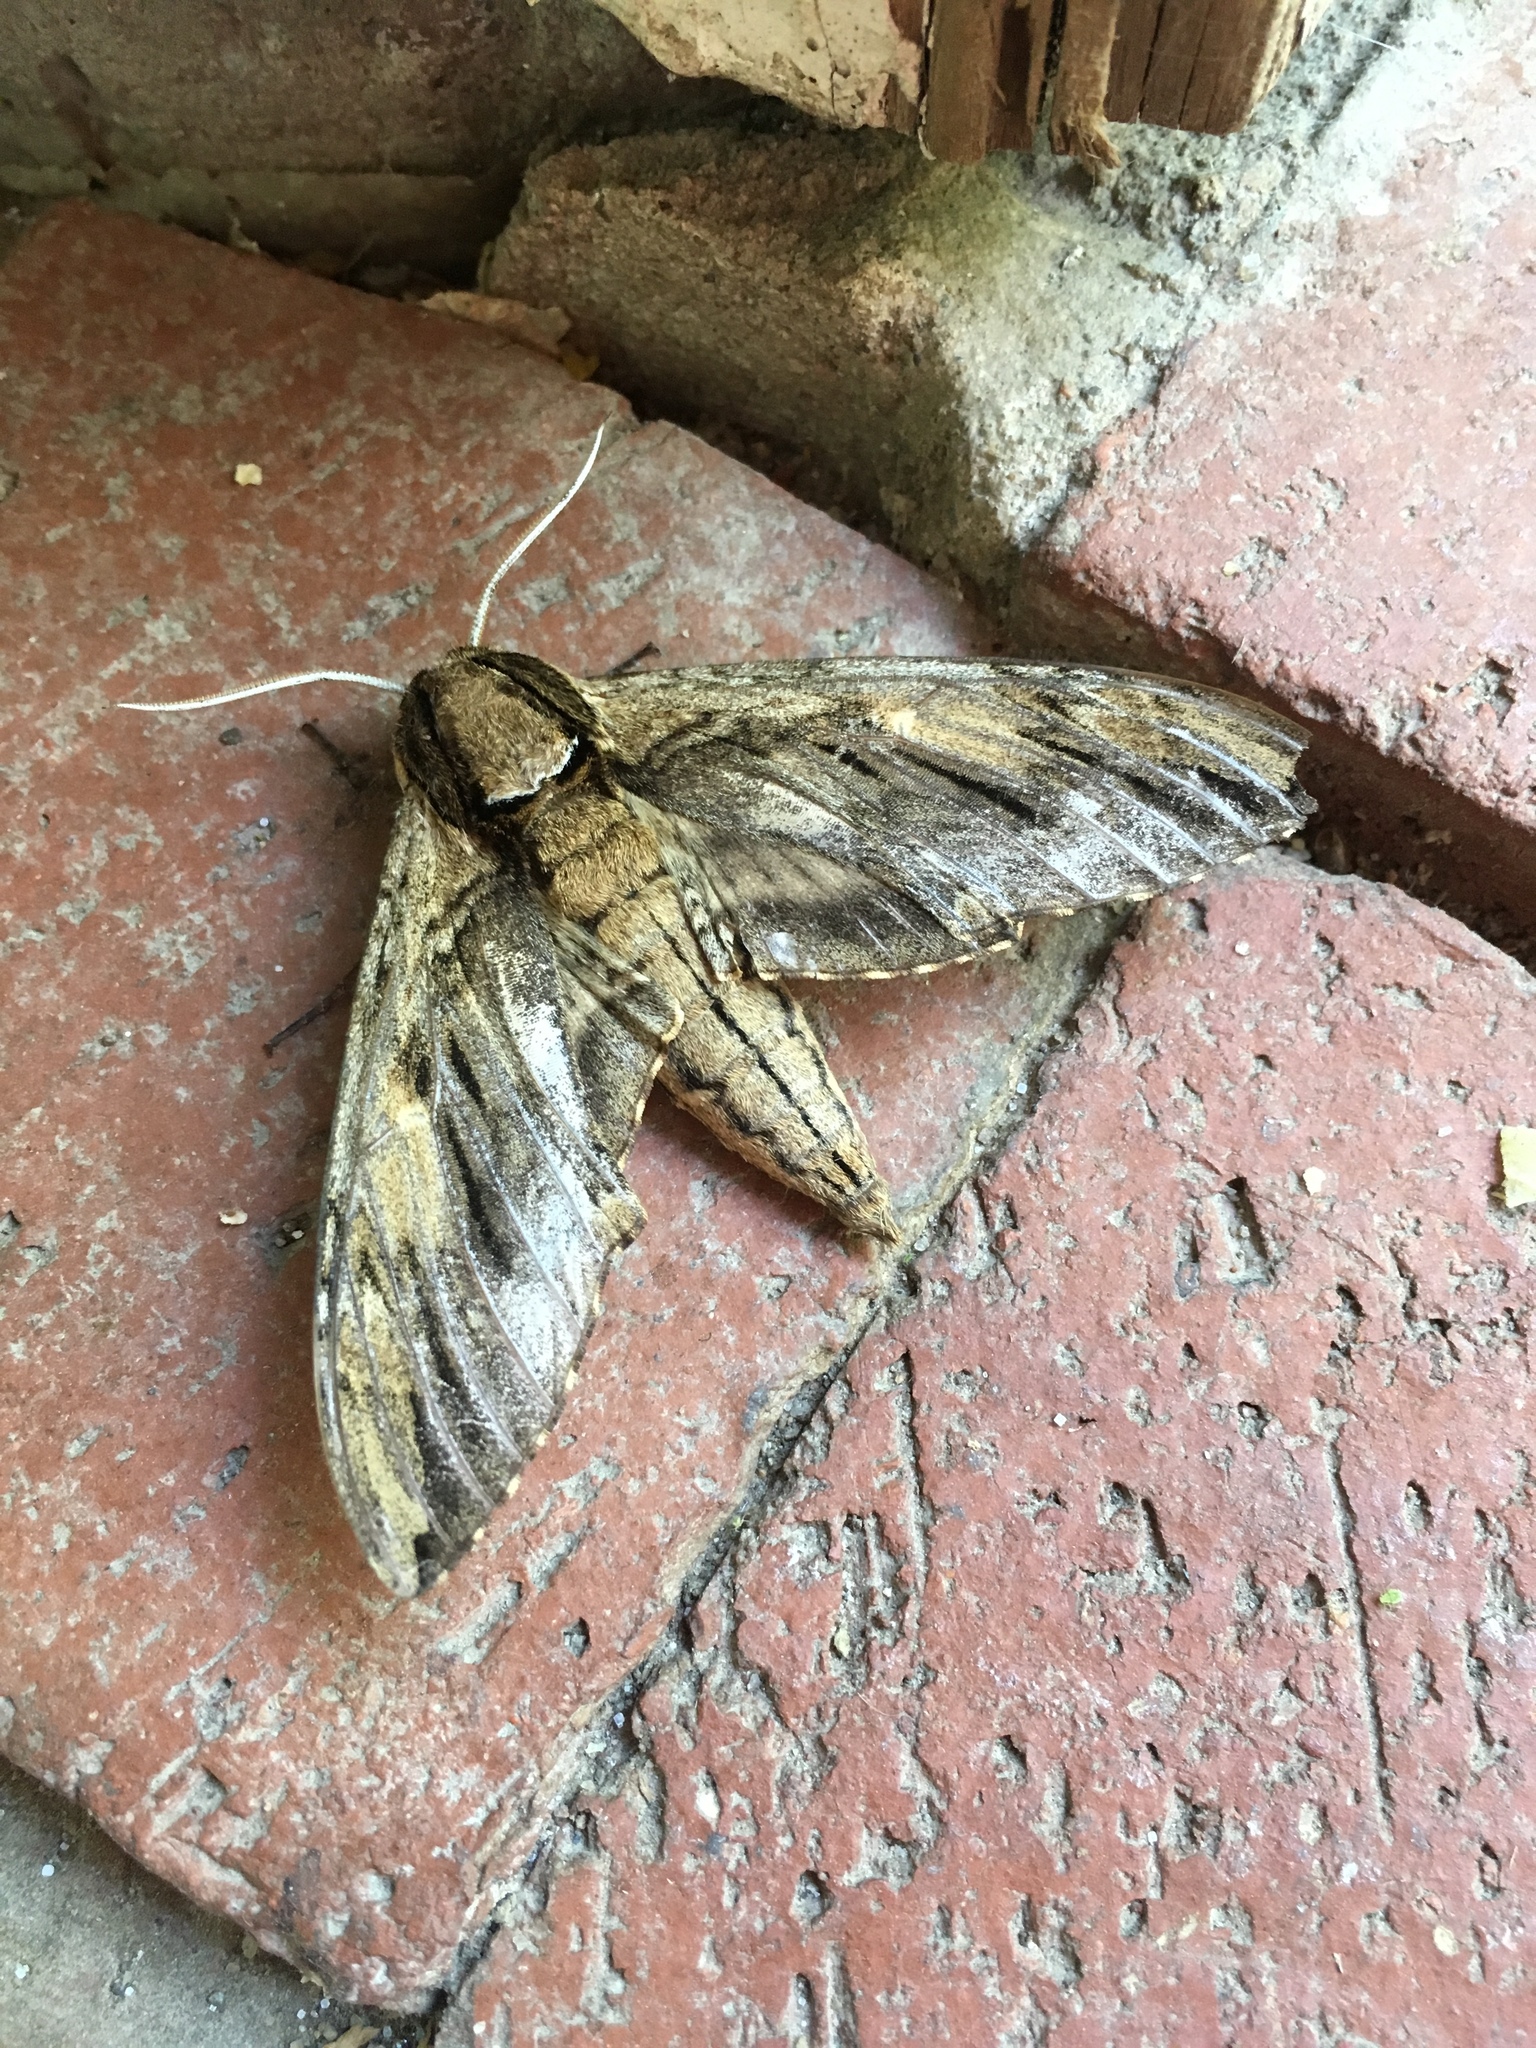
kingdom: Animalia
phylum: Arthropoda
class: Insecta
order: Lepidoptera
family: Sphingidae
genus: Ceratomia
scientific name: Ceratomia amyntor
